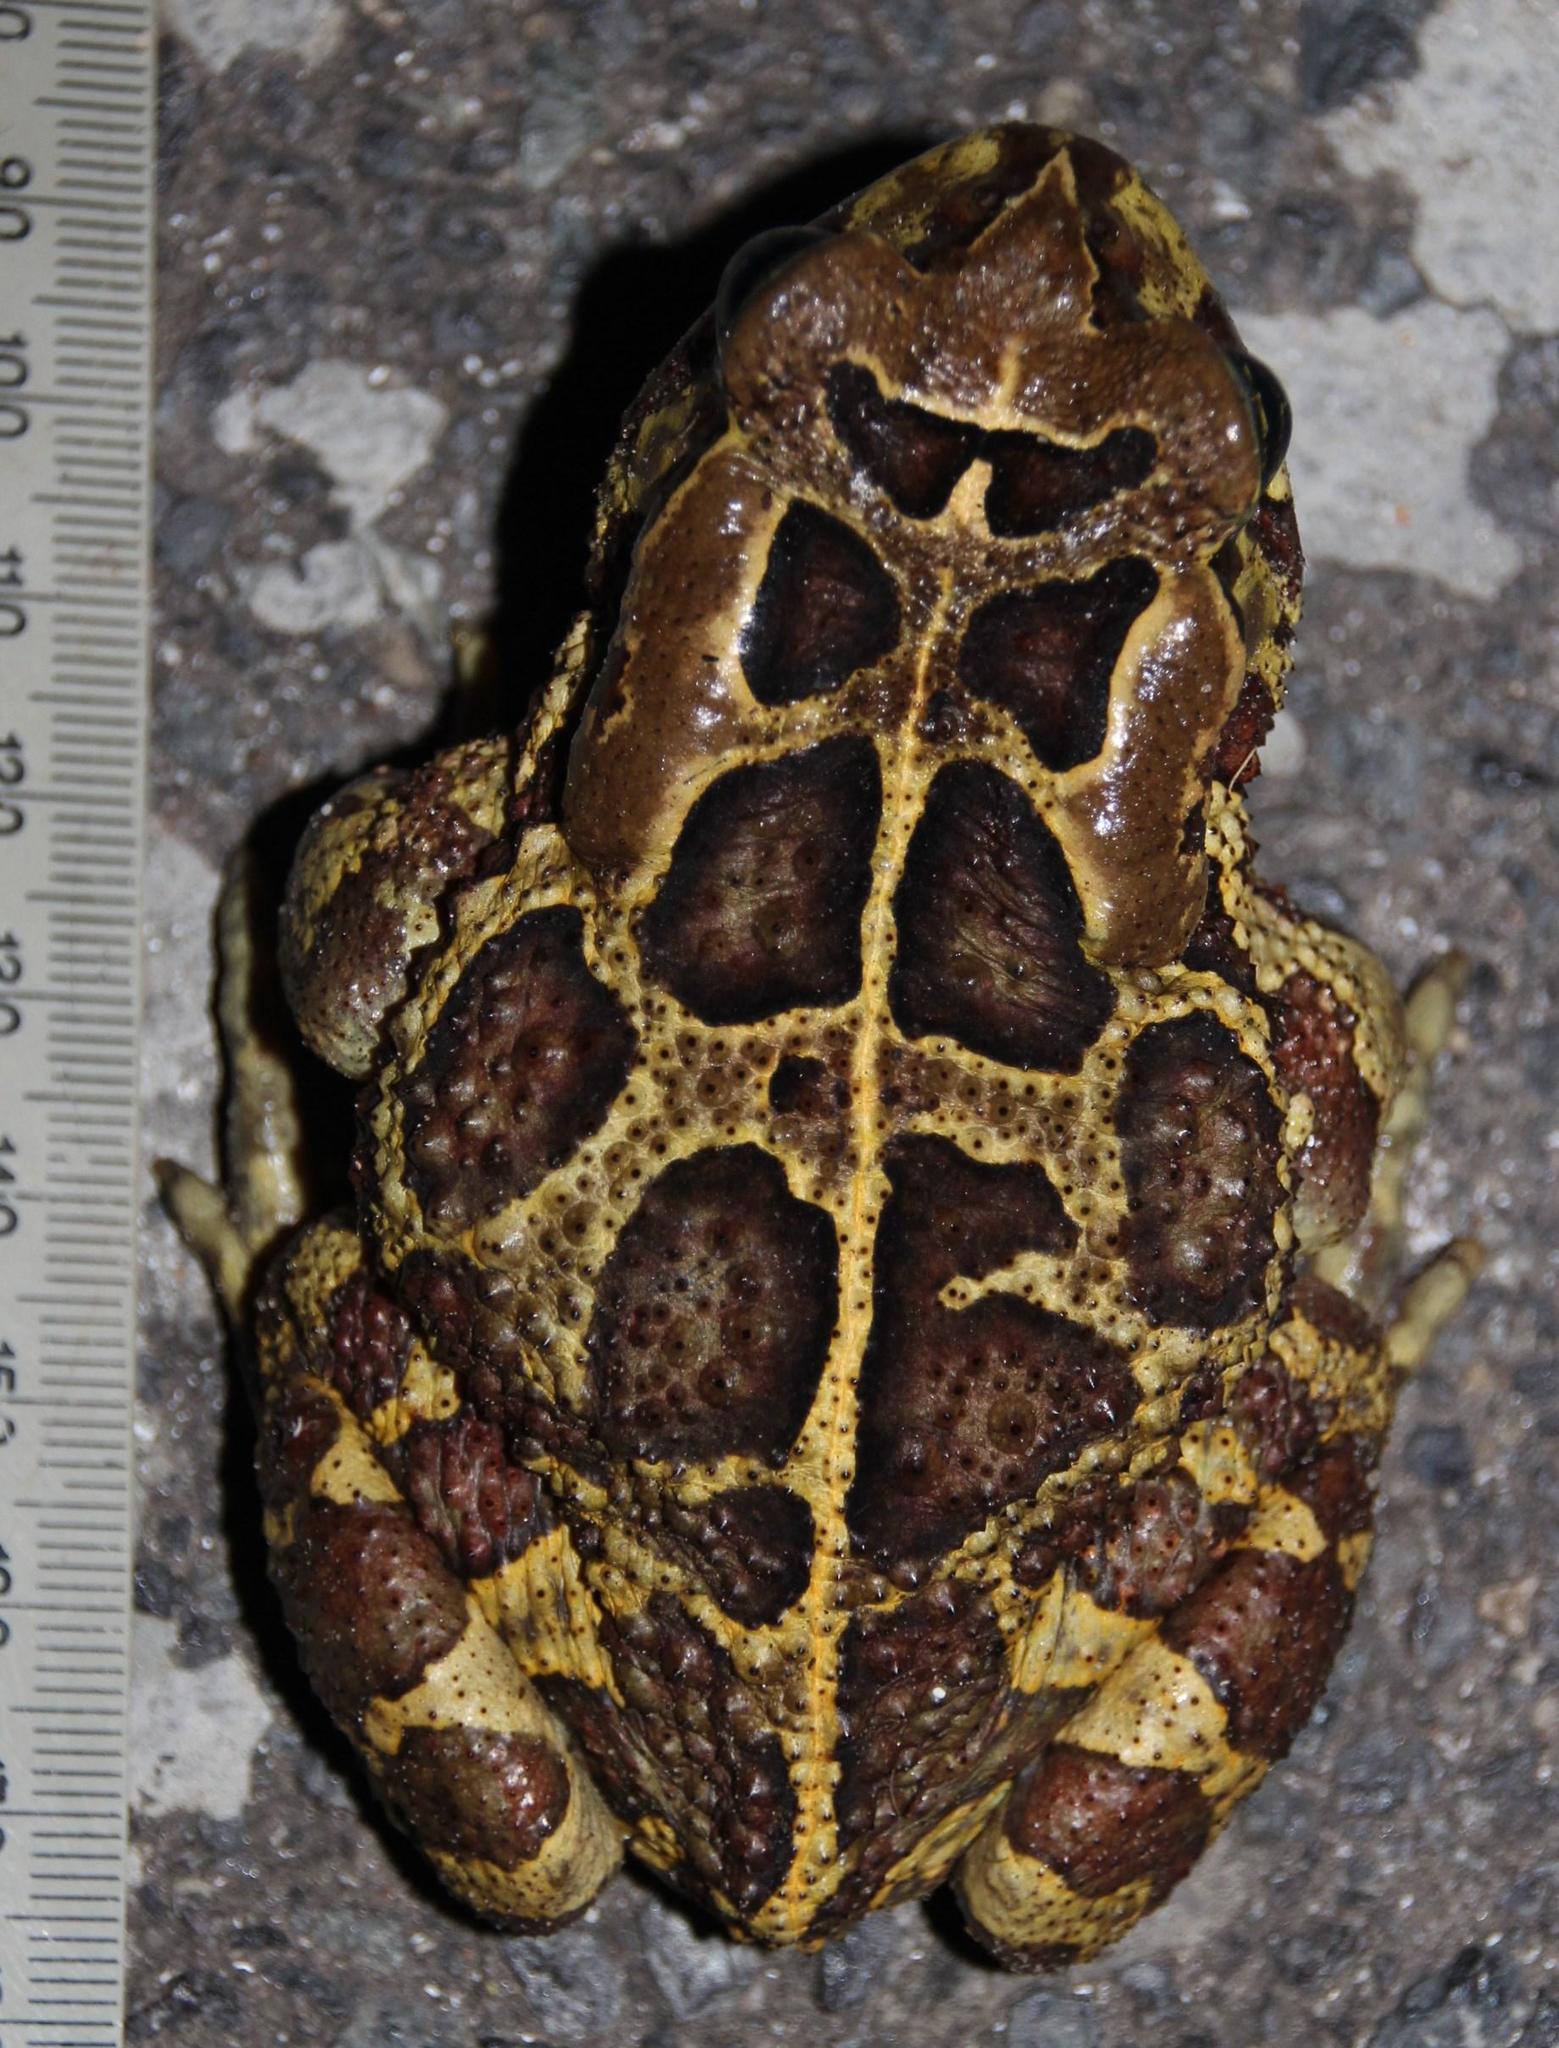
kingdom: Animalia
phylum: Chordata
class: Amphibia
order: Anura
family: Bufonidae
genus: Sclerophrys
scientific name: Sclerophrys pantherina
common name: Panther toad
